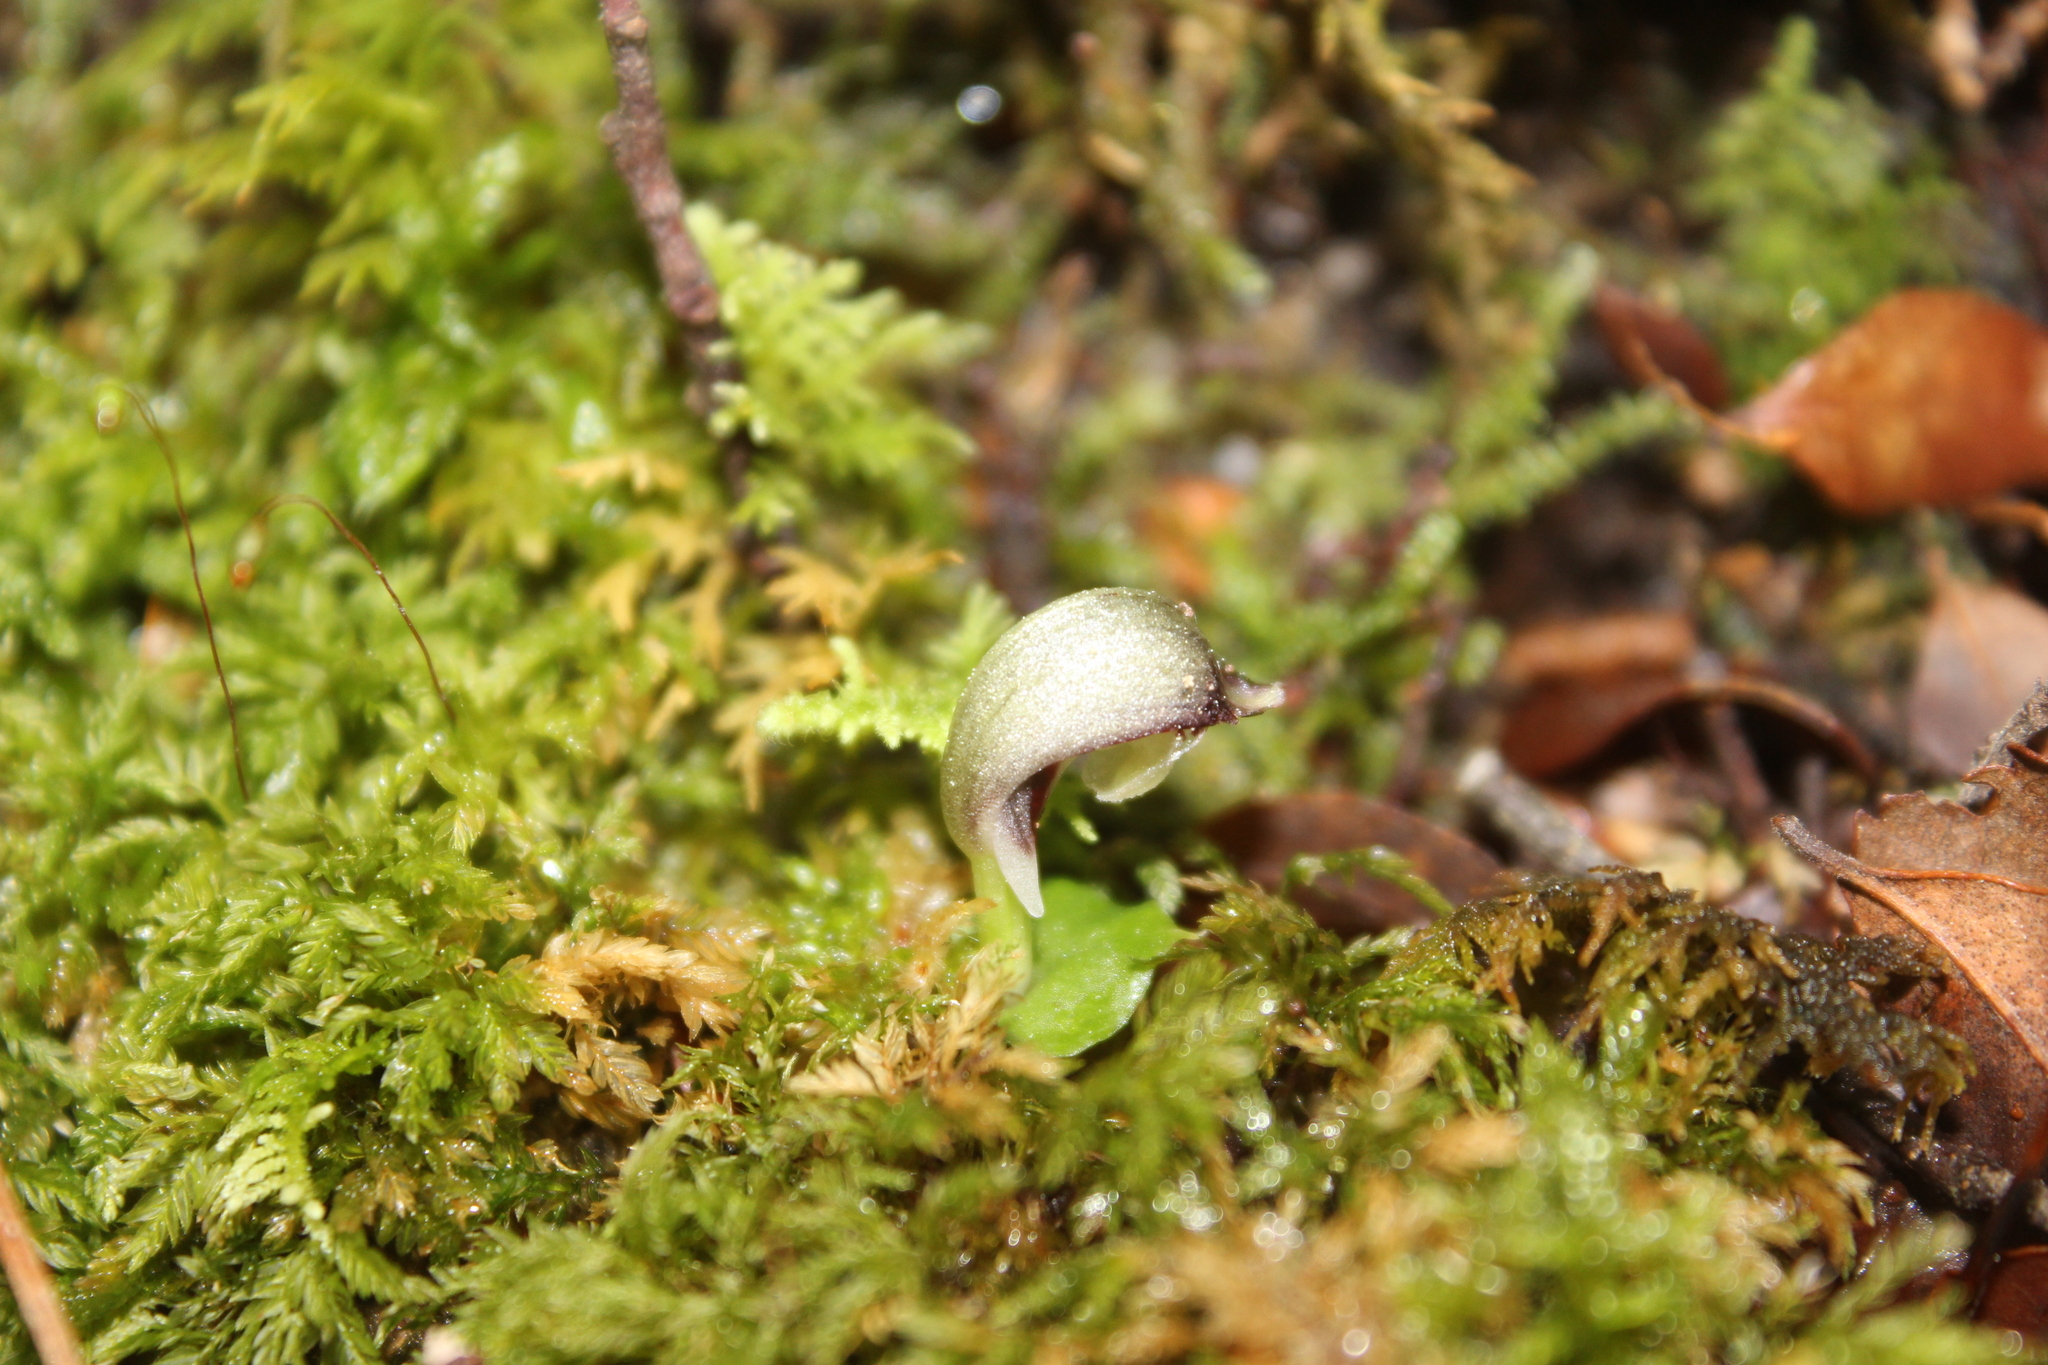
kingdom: Plantae
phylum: Tracheophyta
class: Liliopsida
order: Asparagales
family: Orchidaceae
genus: Corybas
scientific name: Corybas cheesemanii
